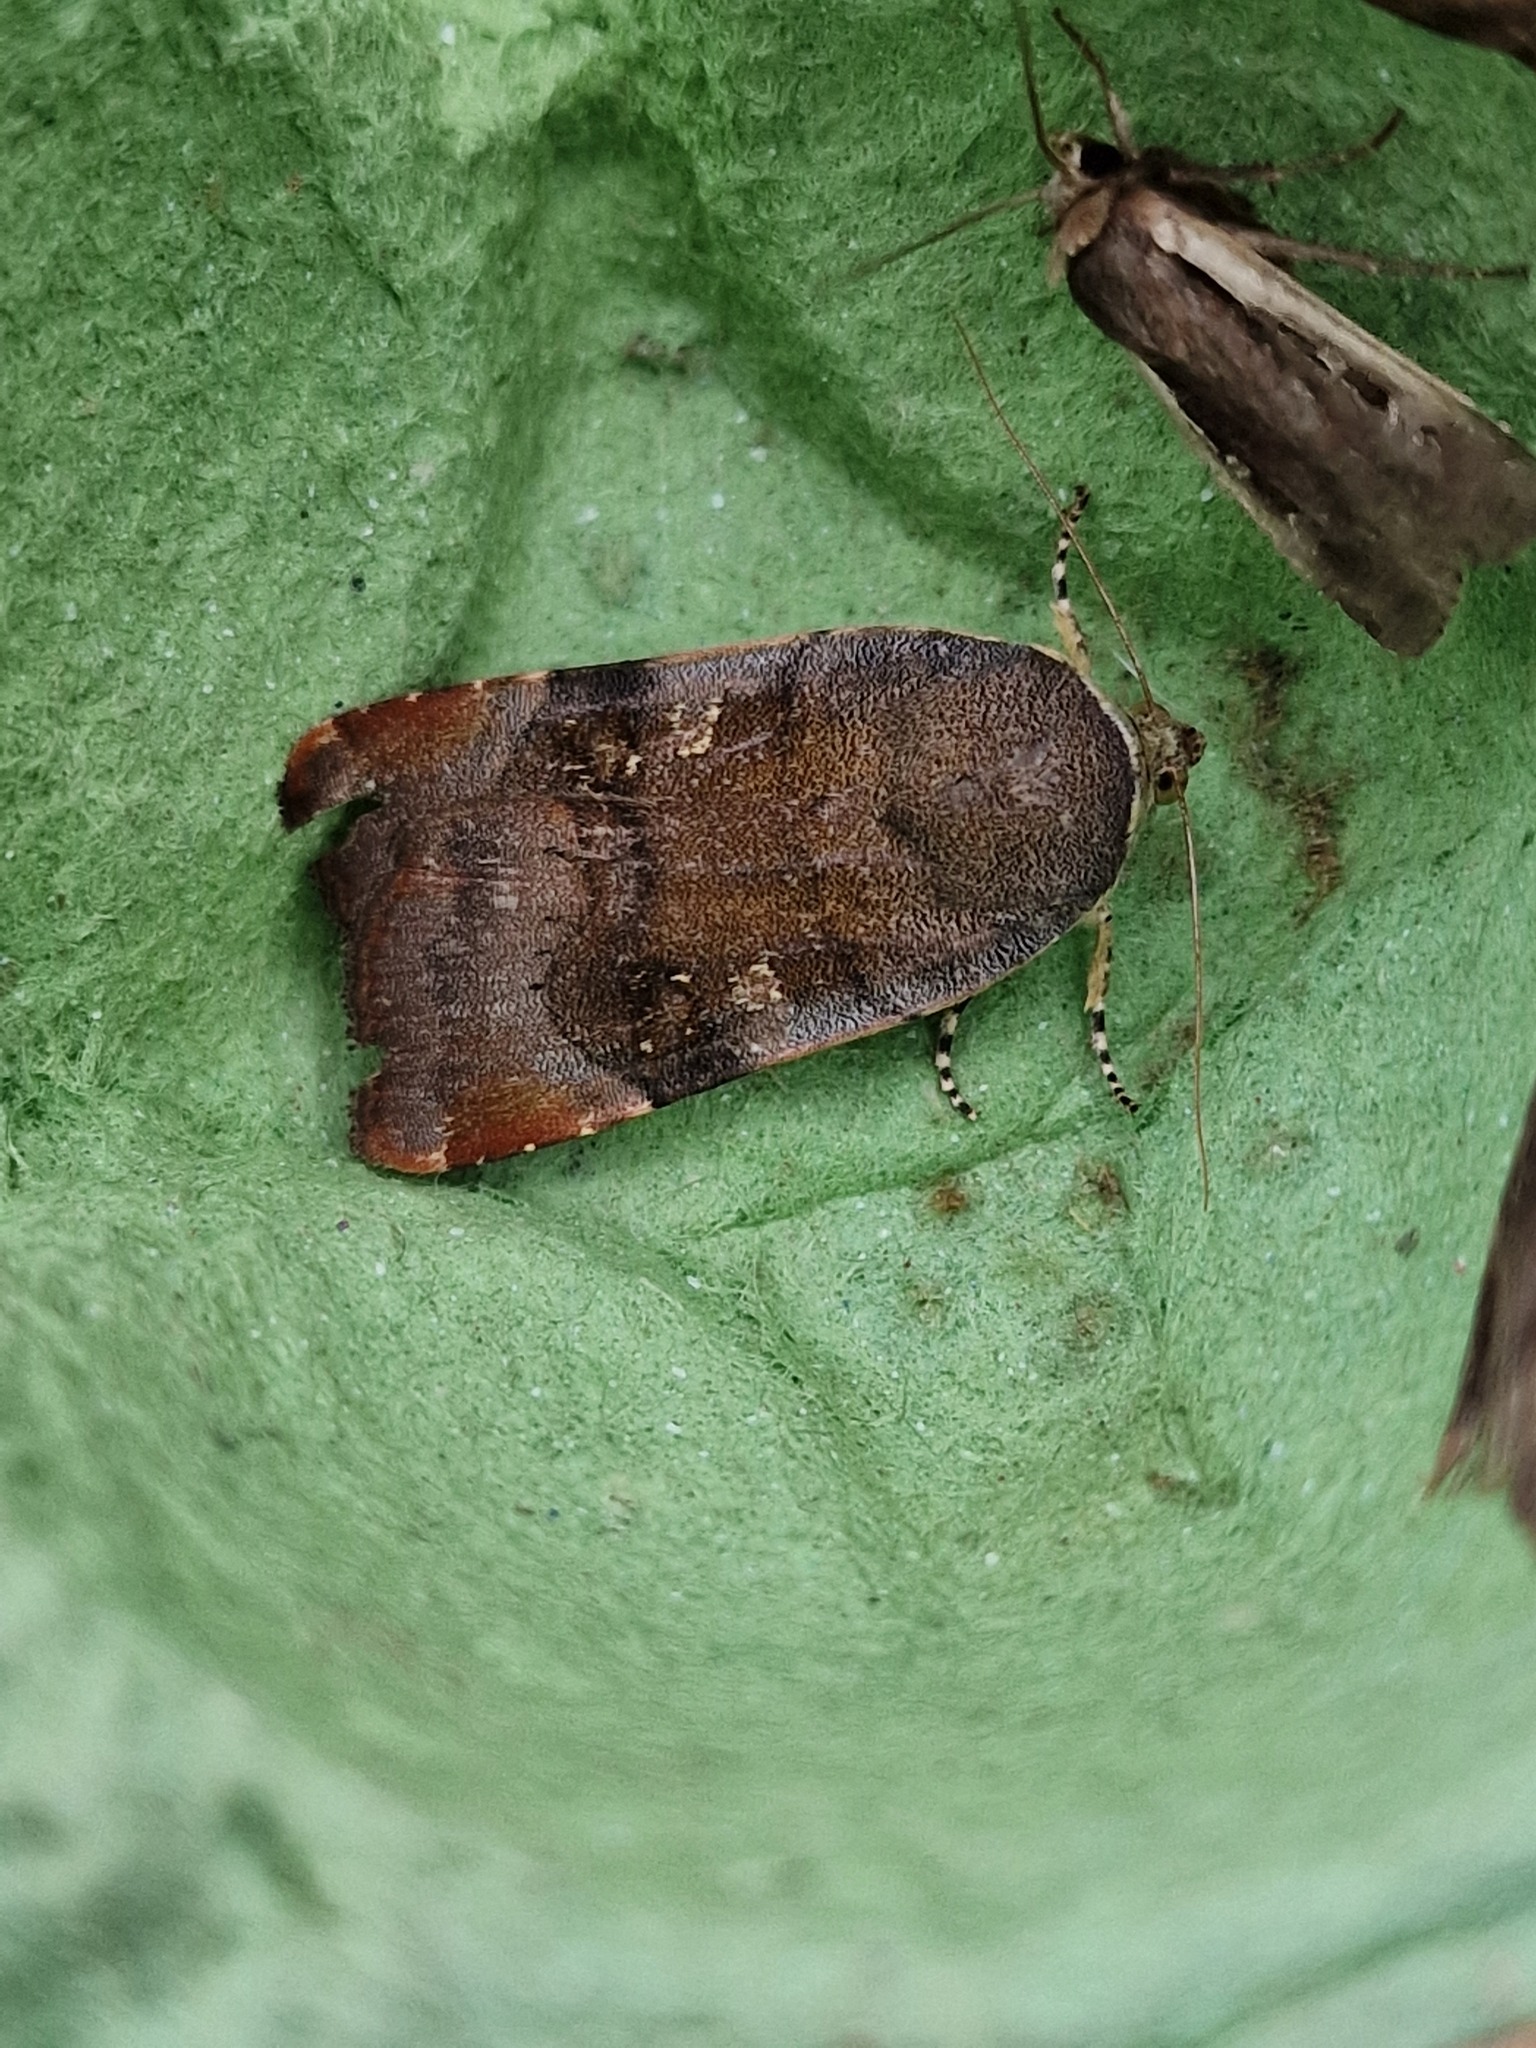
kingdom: Animalia
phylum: Arthropoda
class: Insecta
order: Lepidoptera
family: Noctuidae
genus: Noctua
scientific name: Noctua
